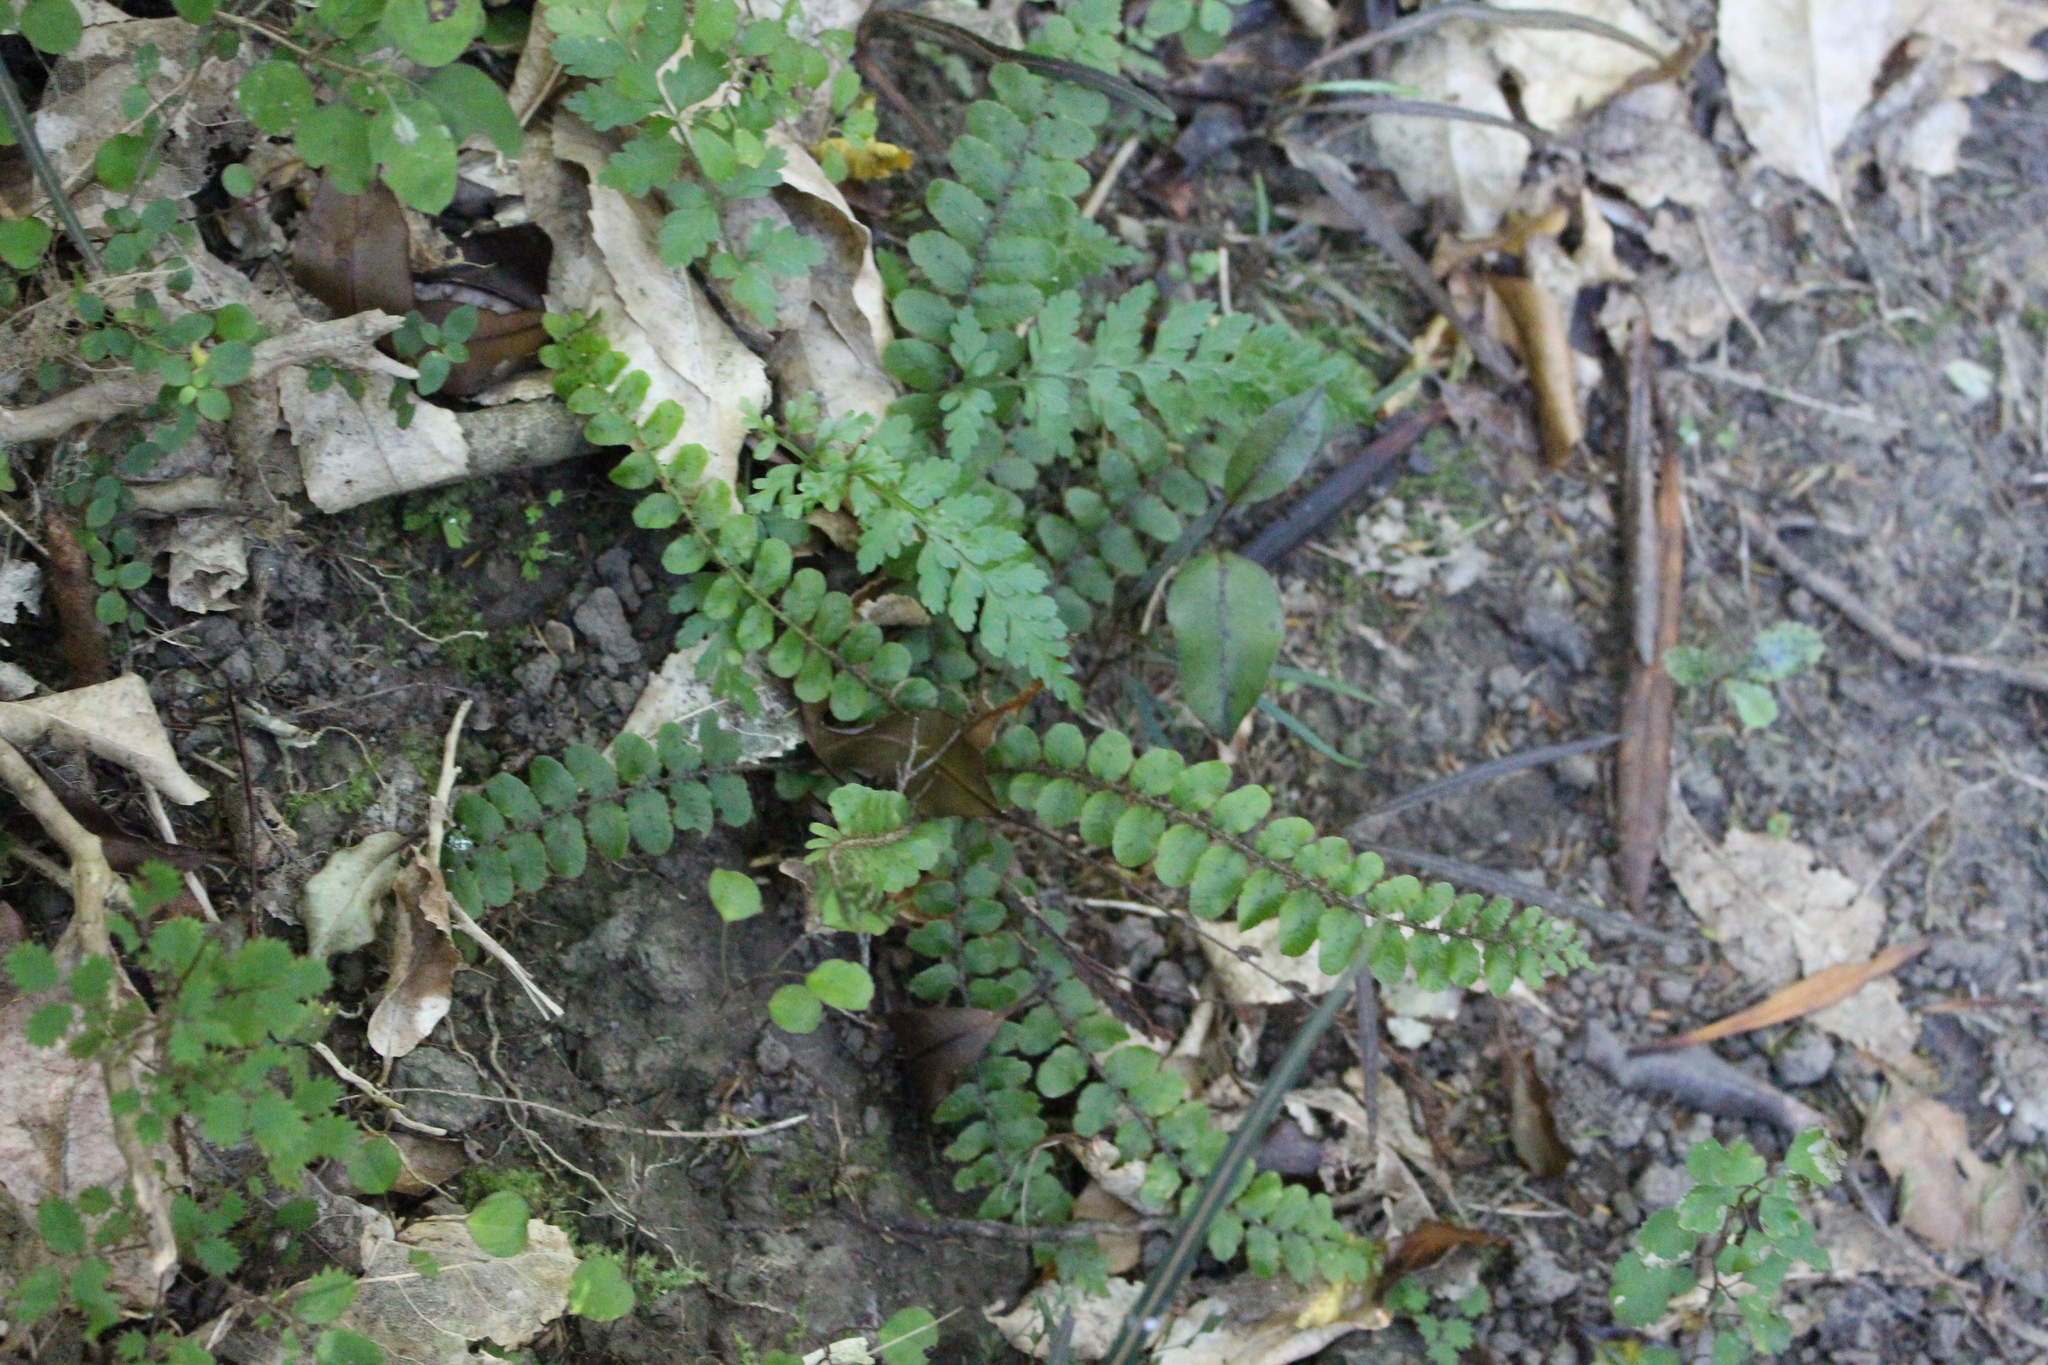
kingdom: Plantae
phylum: Tracheophyta
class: Polypodiopsida
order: Polypodiales
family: Blechnaceae
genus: Cranfillia
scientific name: Cranfillia fluviatilis
